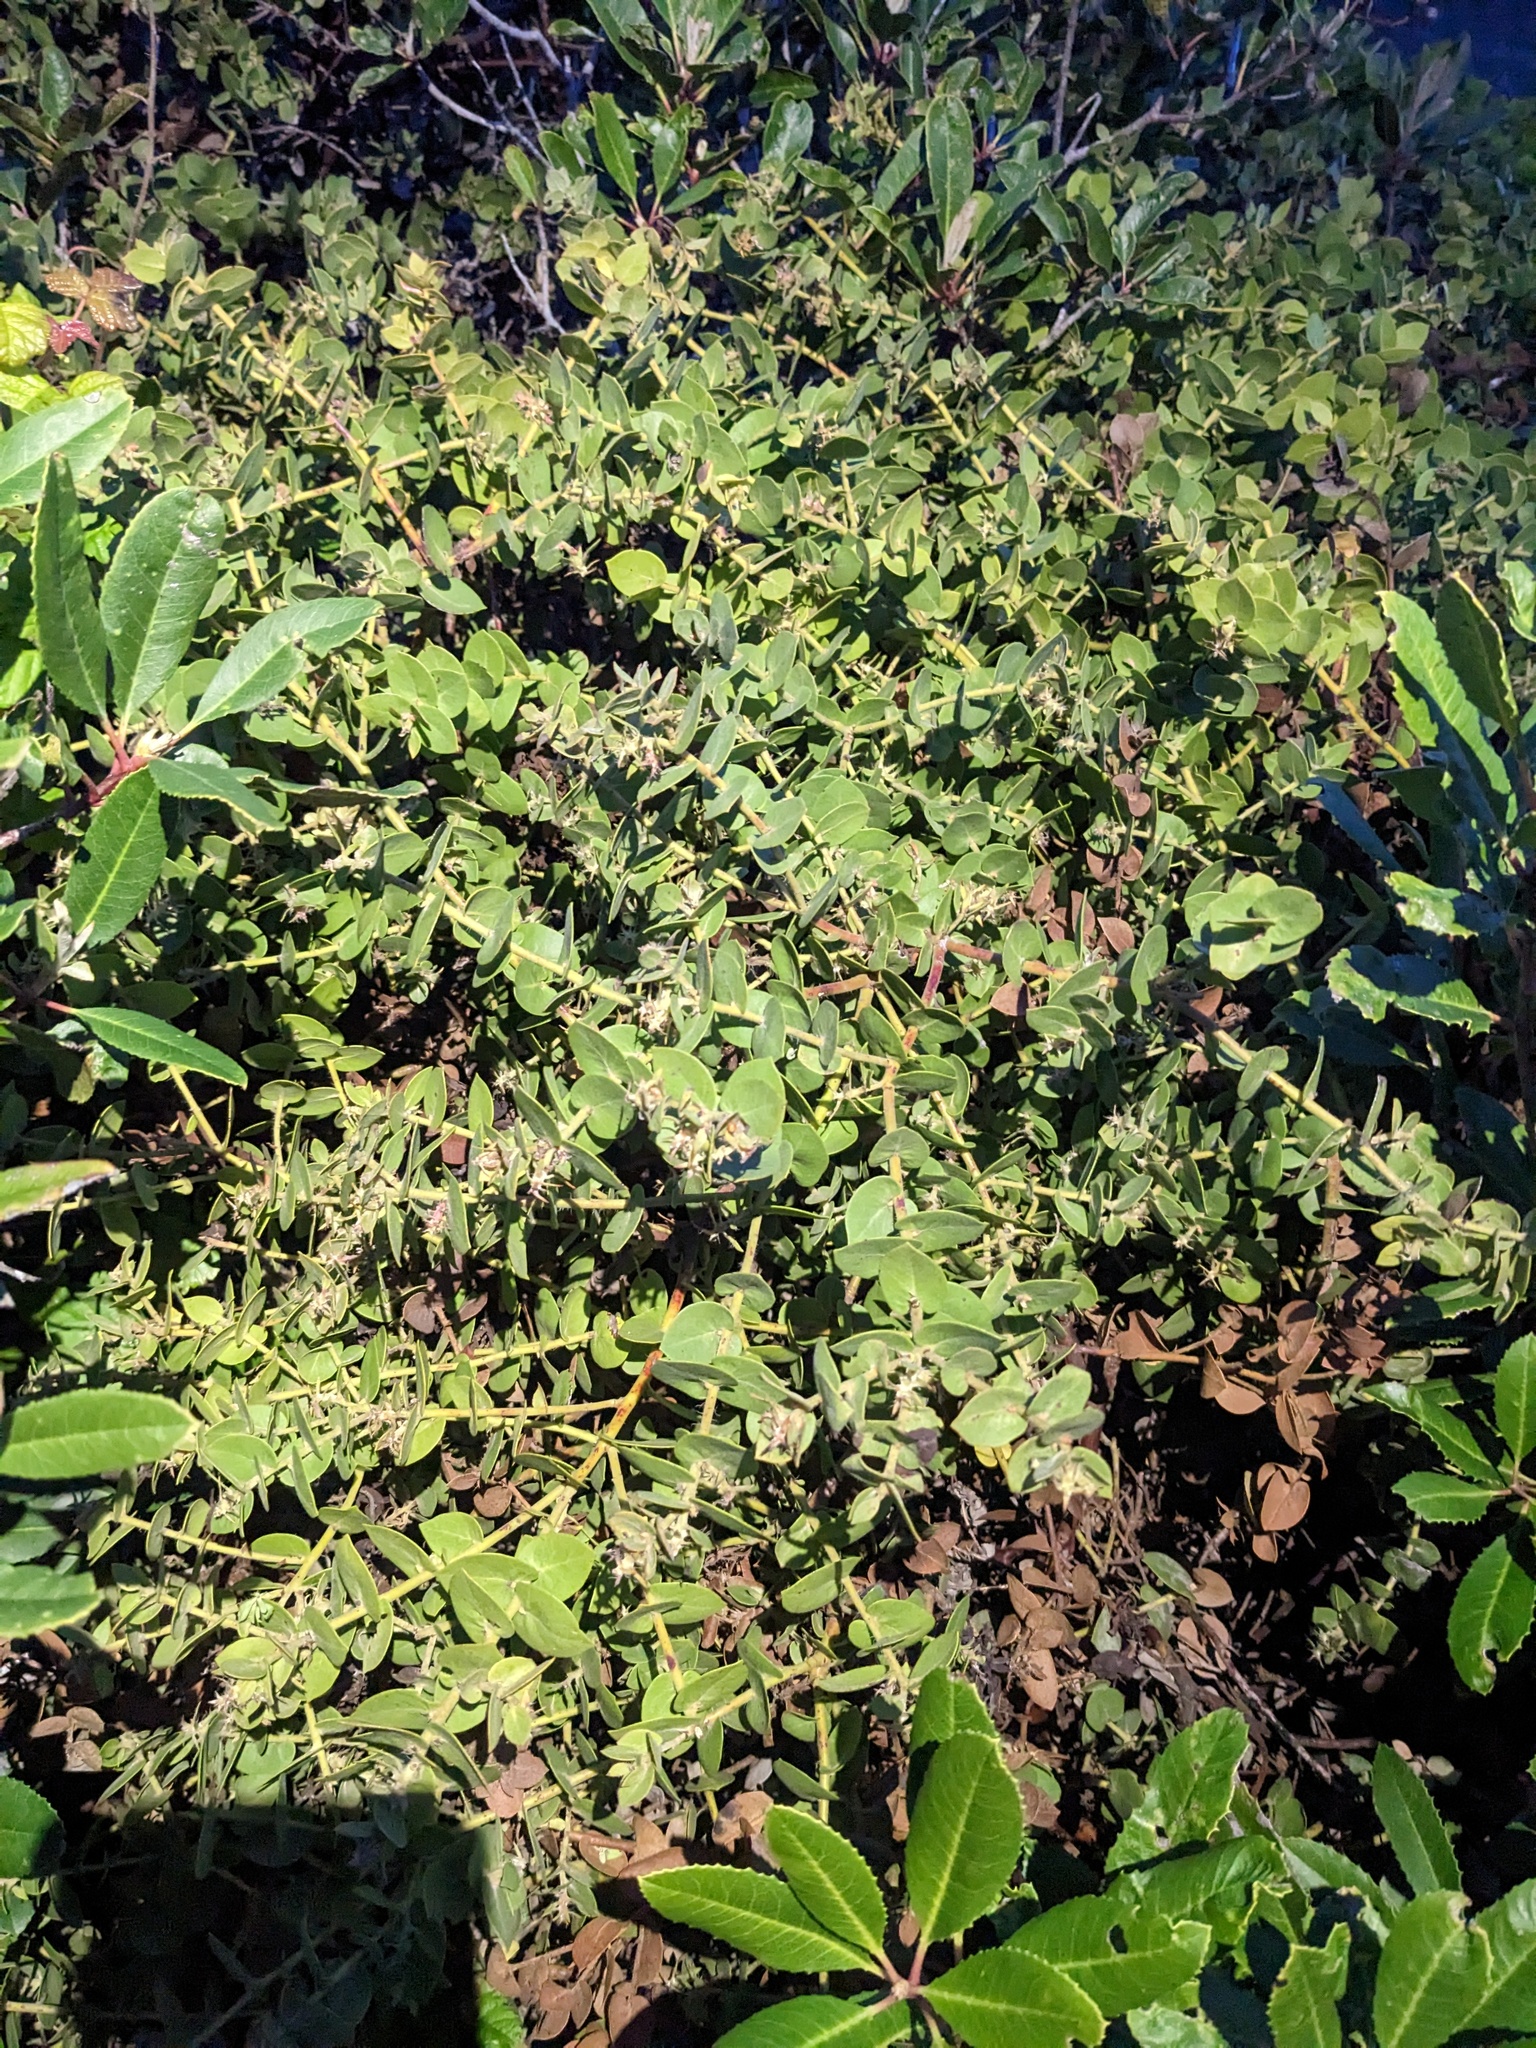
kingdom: Plantae
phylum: Tracheophyta
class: Magnoliopsida
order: Ericales
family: Ericaceae
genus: Arctostaphylos
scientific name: Arctostaphylos cruzensis
